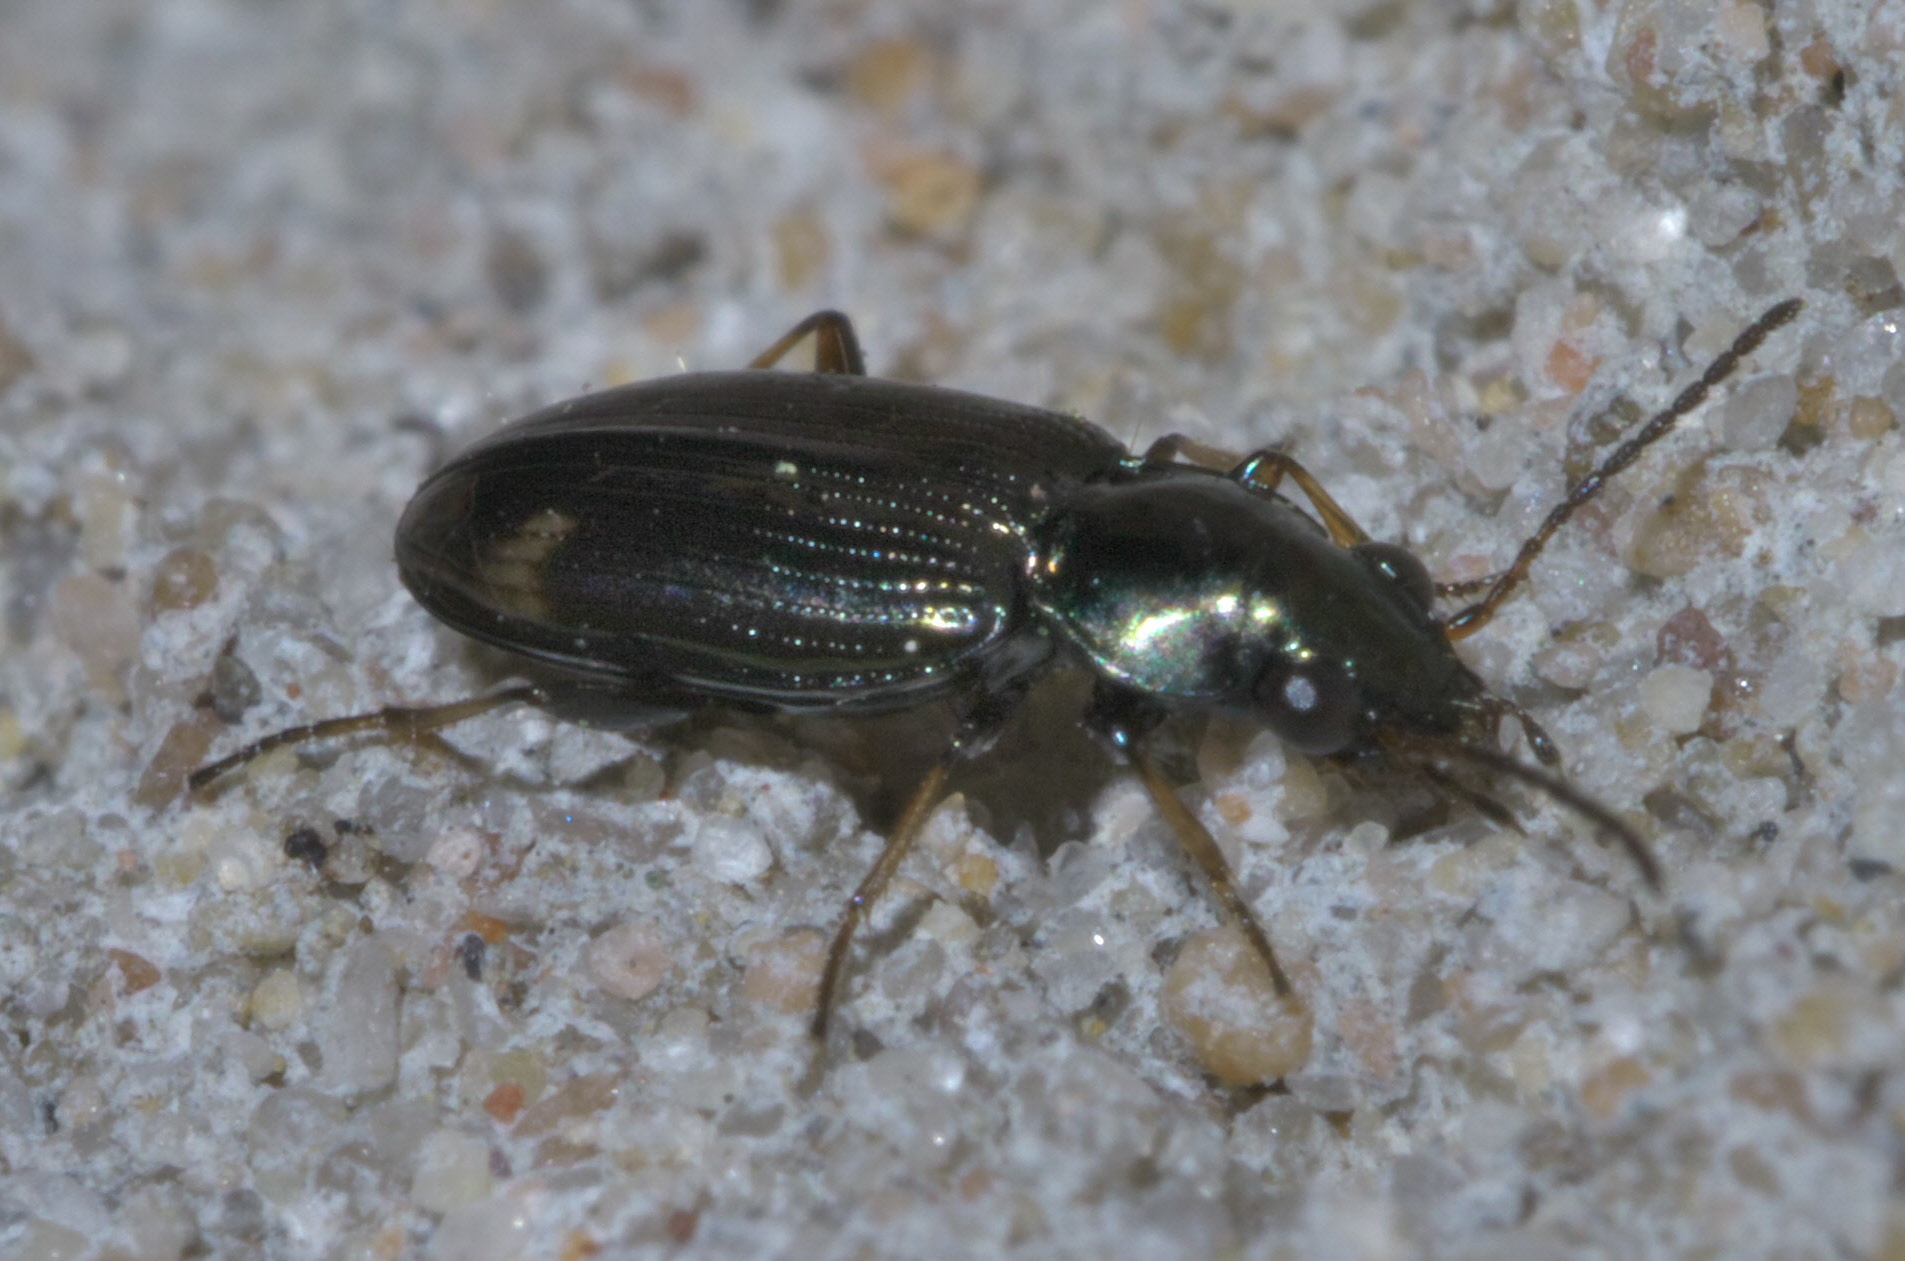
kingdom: Animalia
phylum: Arthropoda
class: Insecta
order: Coleoptera
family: Carabidae
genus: Bembidion
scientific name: Bembidion rapidum
